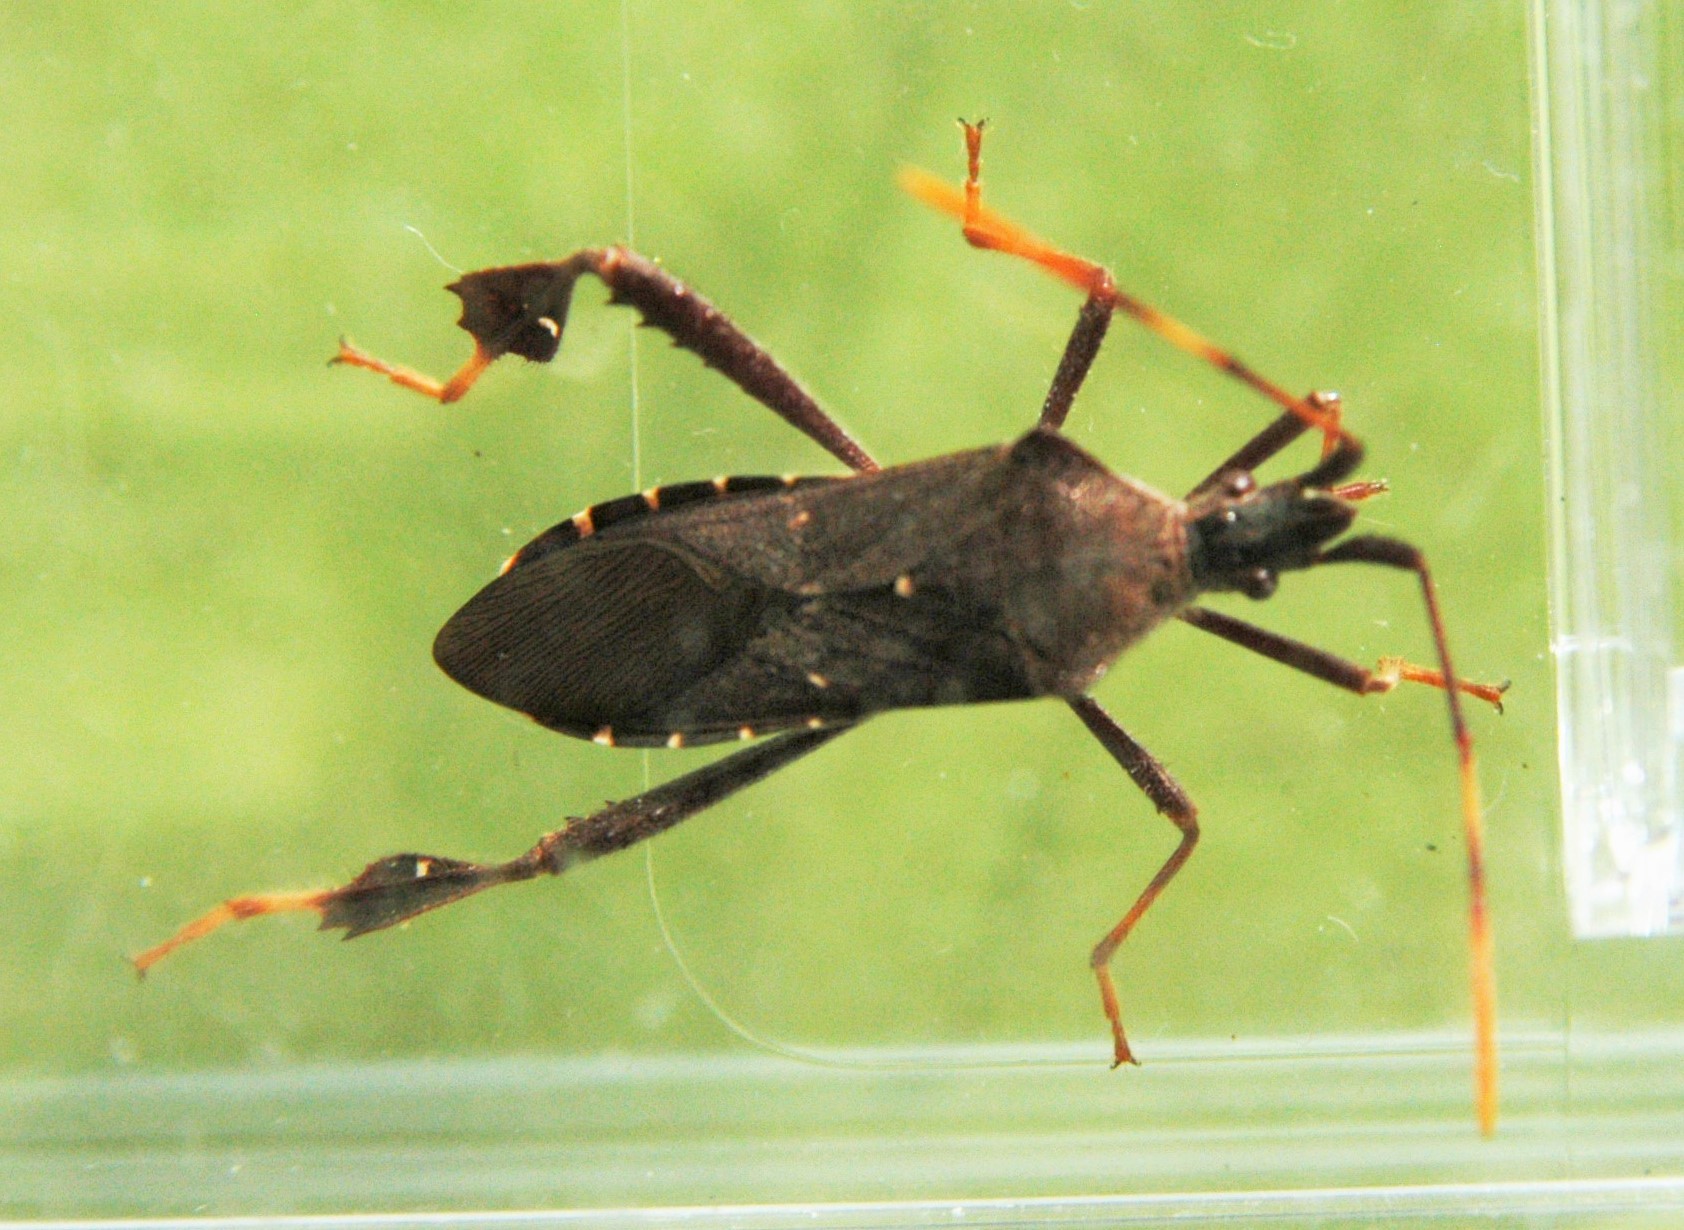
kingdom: Animalia
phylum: Arthropoda
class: Insecta
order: Hemiptera
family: Coreidae
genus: Leptoglossus
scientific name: Leptoglossus oppositus
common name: Northern leaf-footed bug
